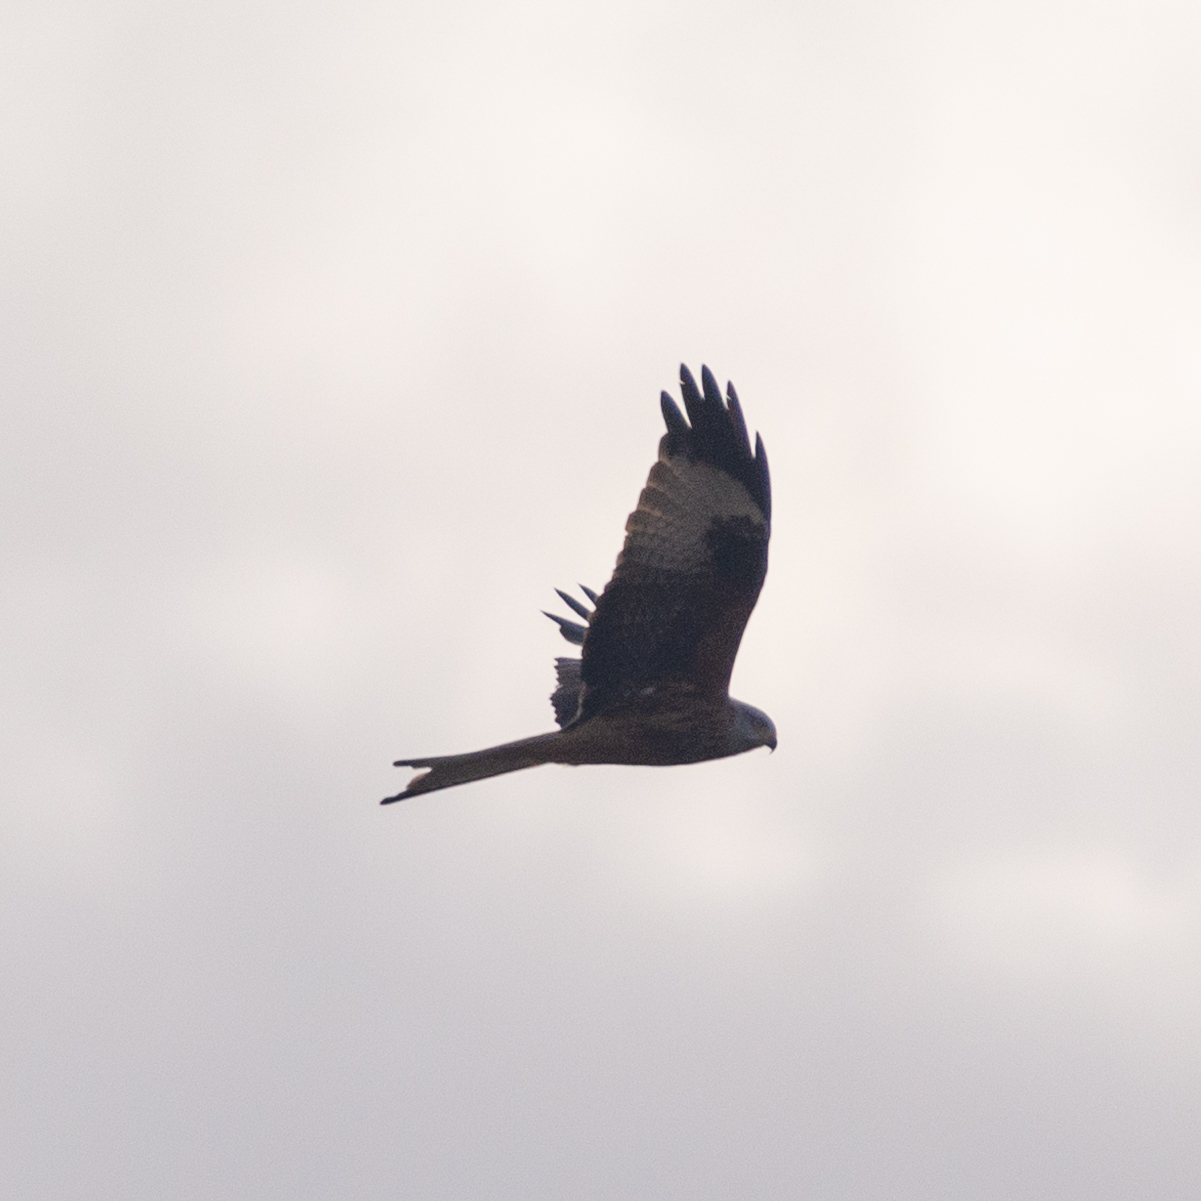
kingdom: Animalia
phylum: Chordata
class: Aves
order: Accipitriformes
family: Accipitridae
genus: Milvus
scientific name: Milvus milvus
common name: Red kite
